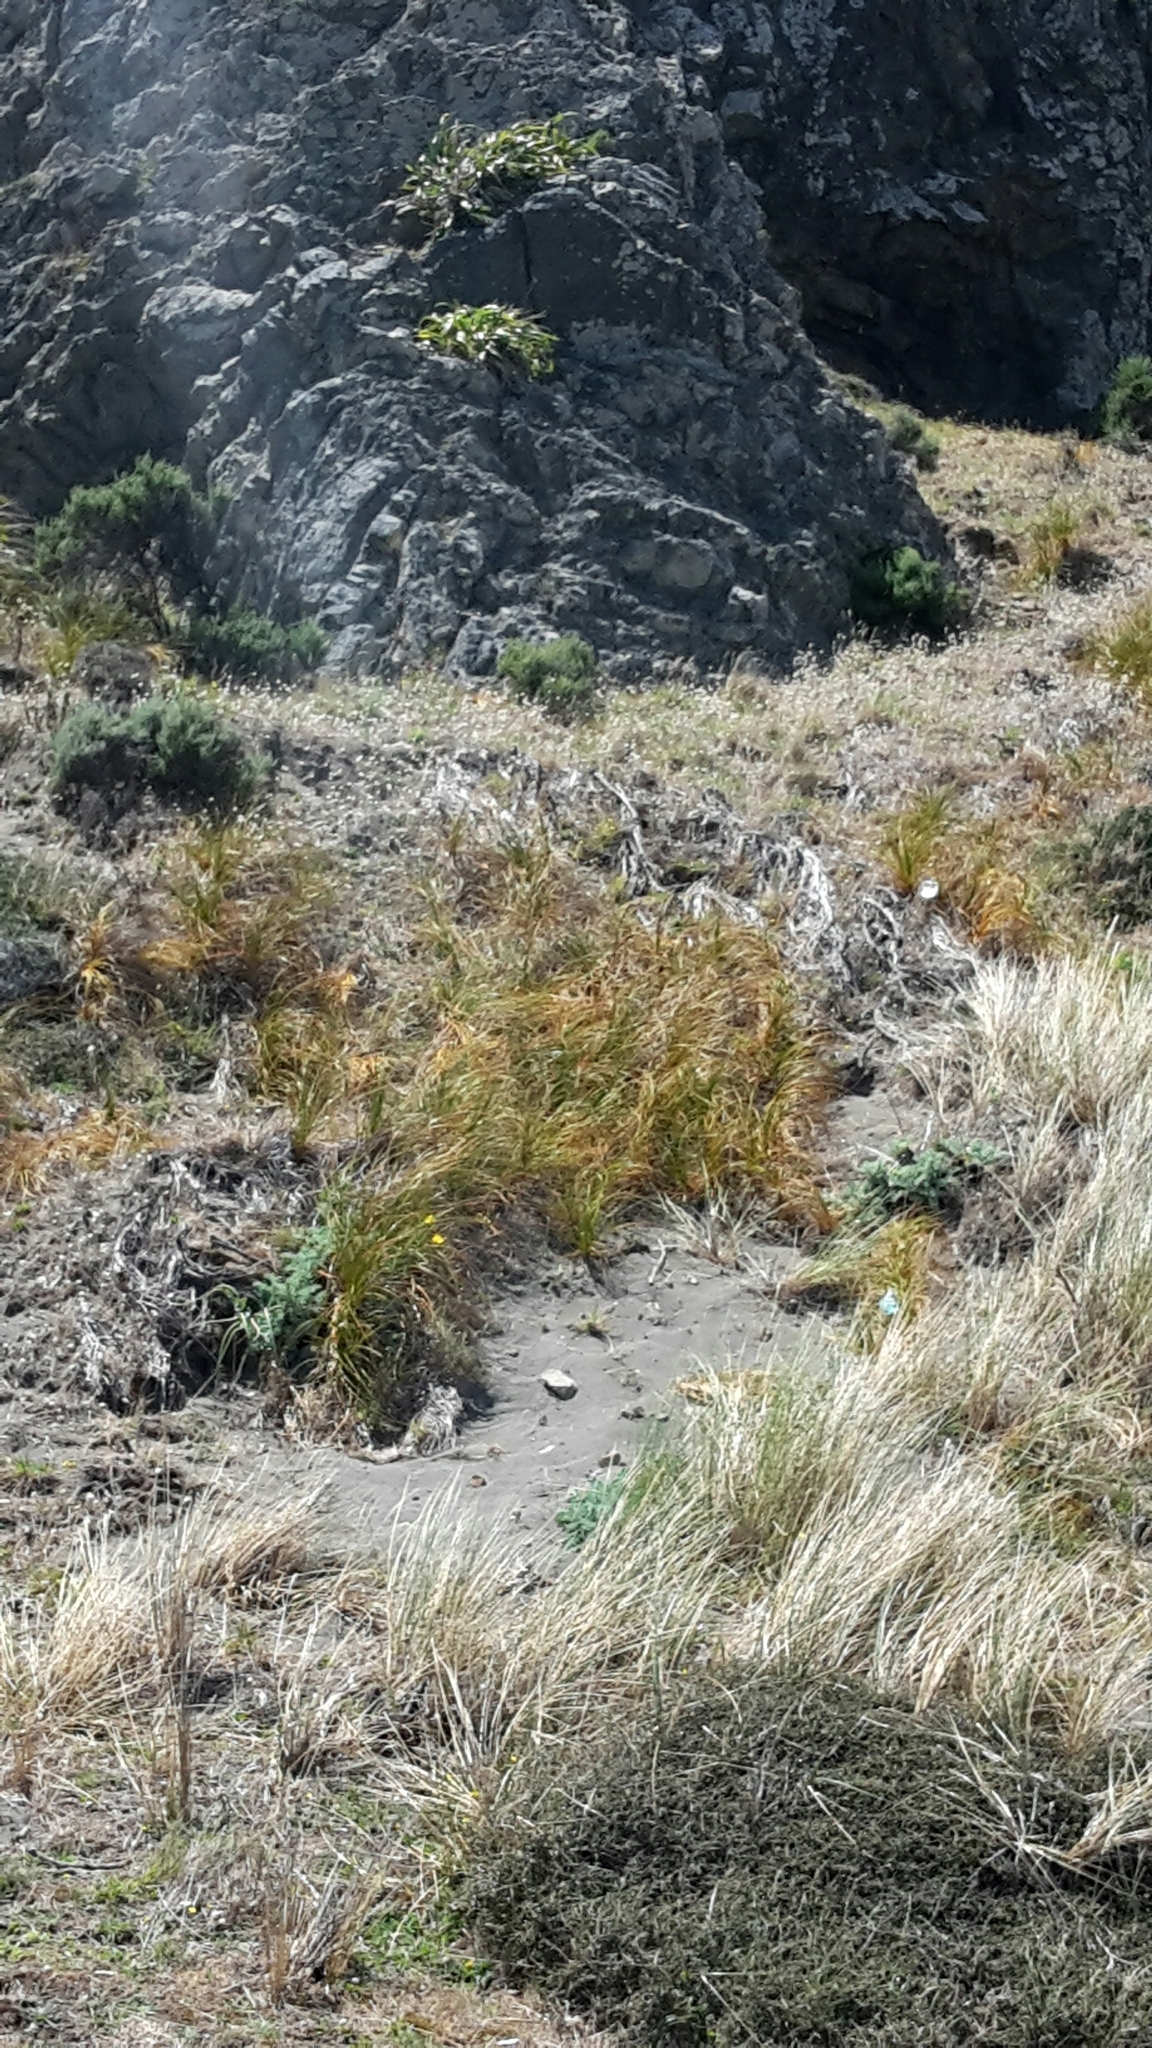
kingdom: Plantae
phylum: Tracheophyta
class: Liliopsida
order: Poales
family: Cyperaceae
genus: Ficinia
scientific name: Ficinia spiralis
